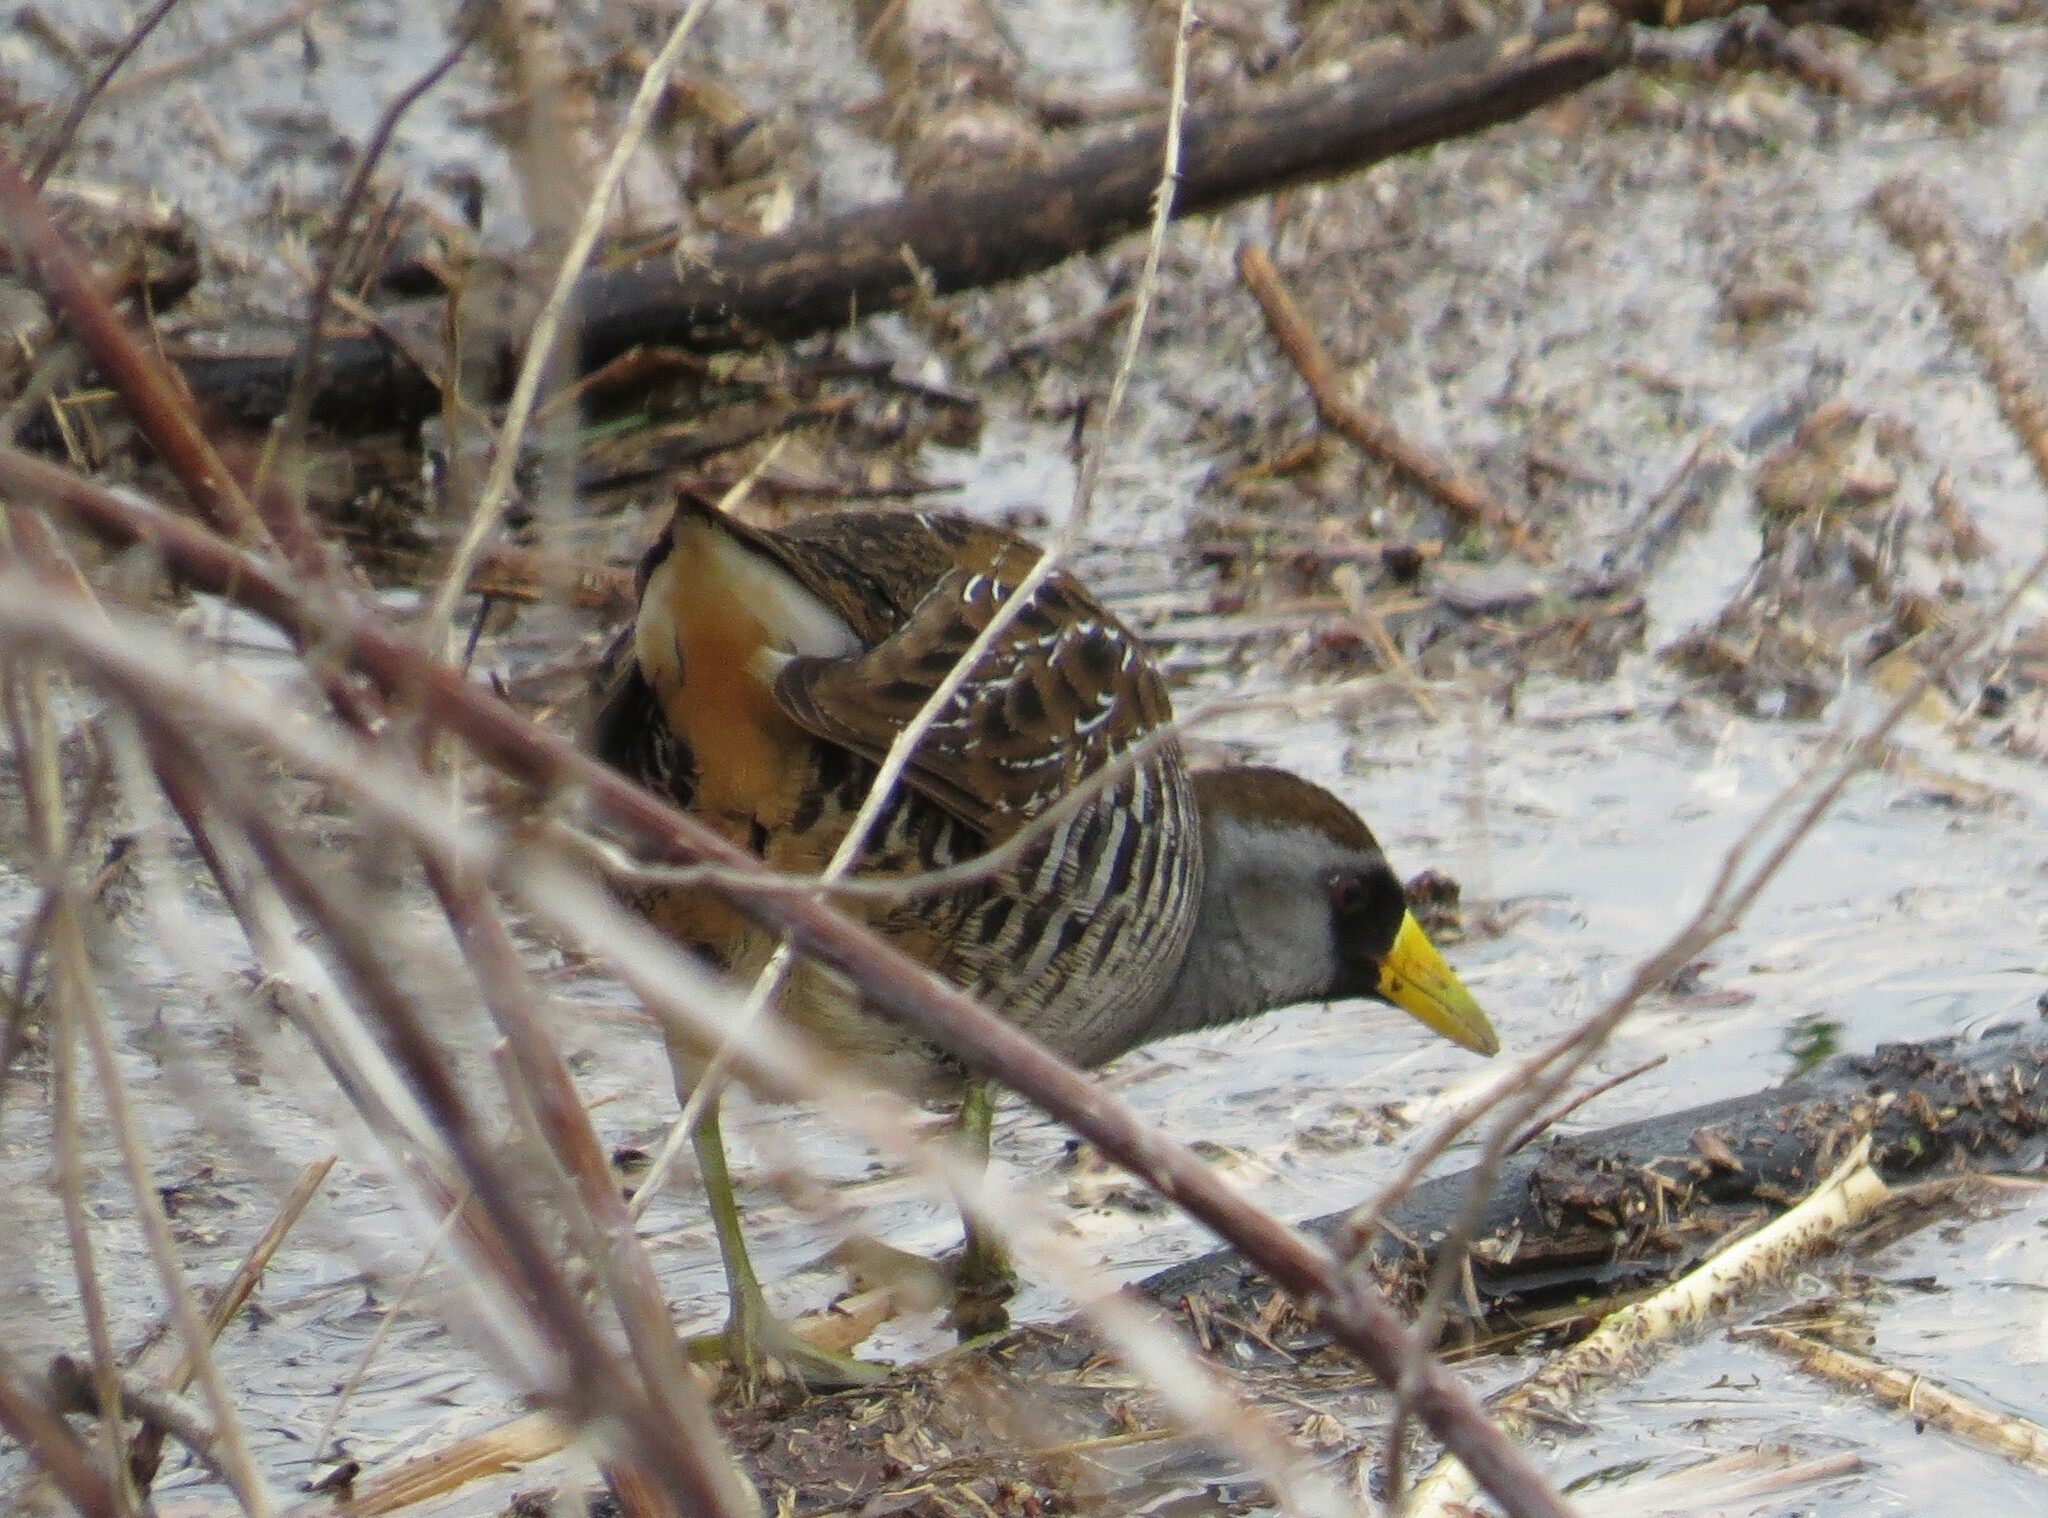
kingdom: Animalia
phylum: Chordata
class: Aves
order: Gruiformes
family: Rallidae
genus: Porzana
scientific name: Porzana carolina
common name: Sora
